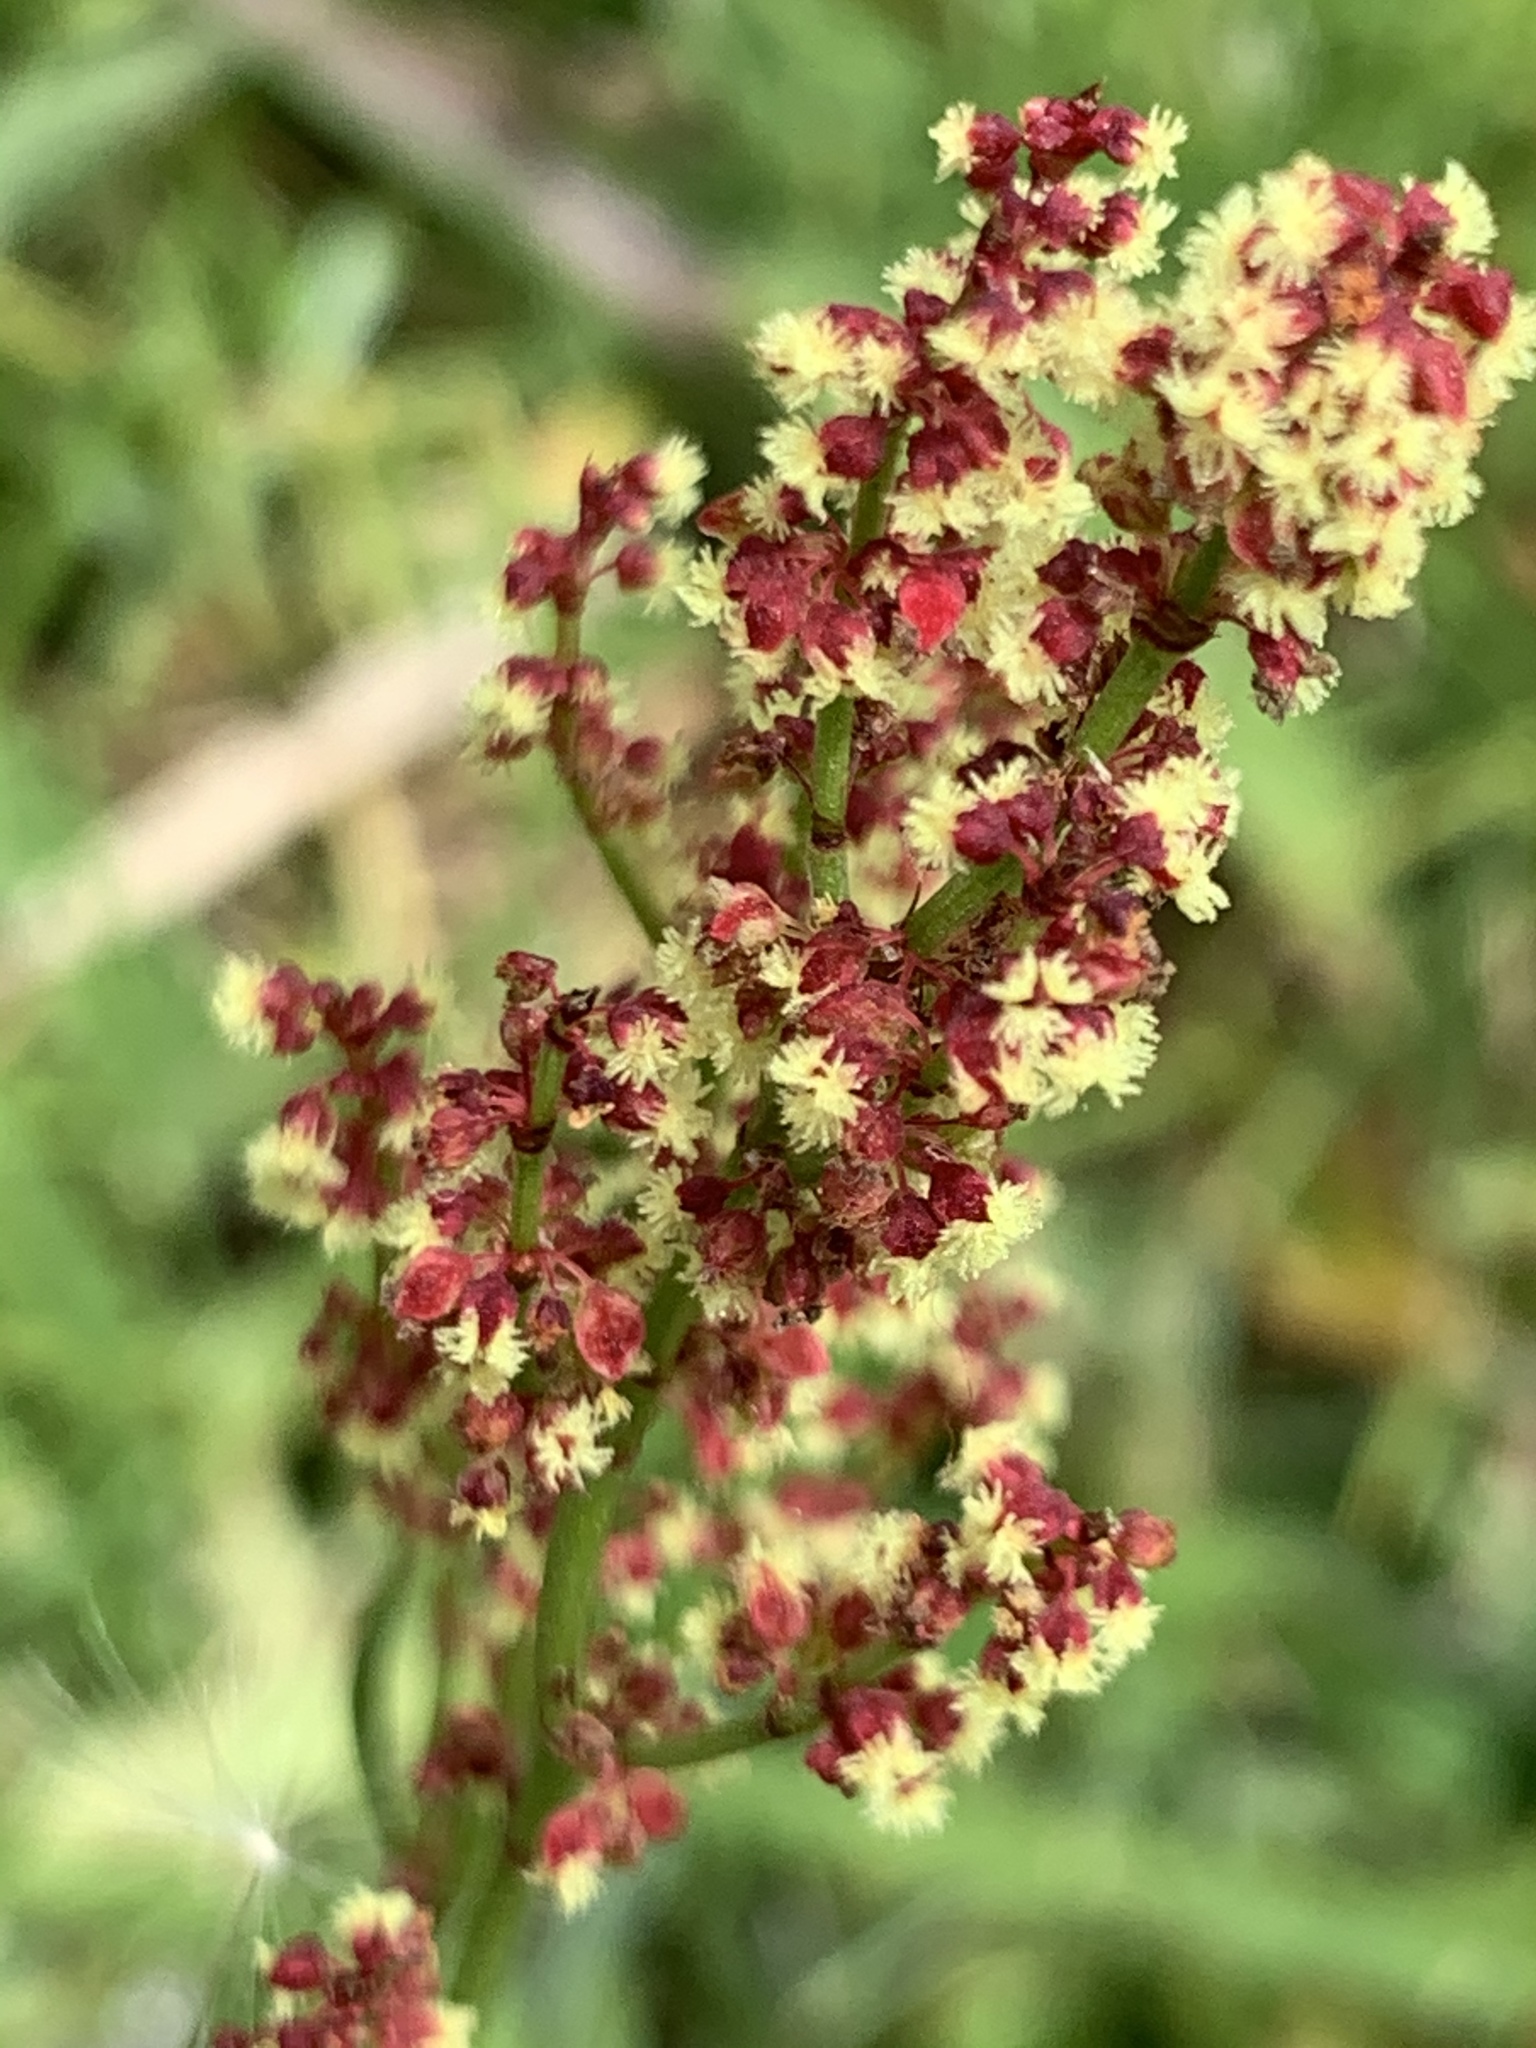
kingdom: Plantae
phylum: Tracheophyta
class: Magnoliopsida
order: Caryophyllales
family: Polygonaceae
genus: Rumex
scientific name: Rumex acetosella
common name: Common sheep sorrel
